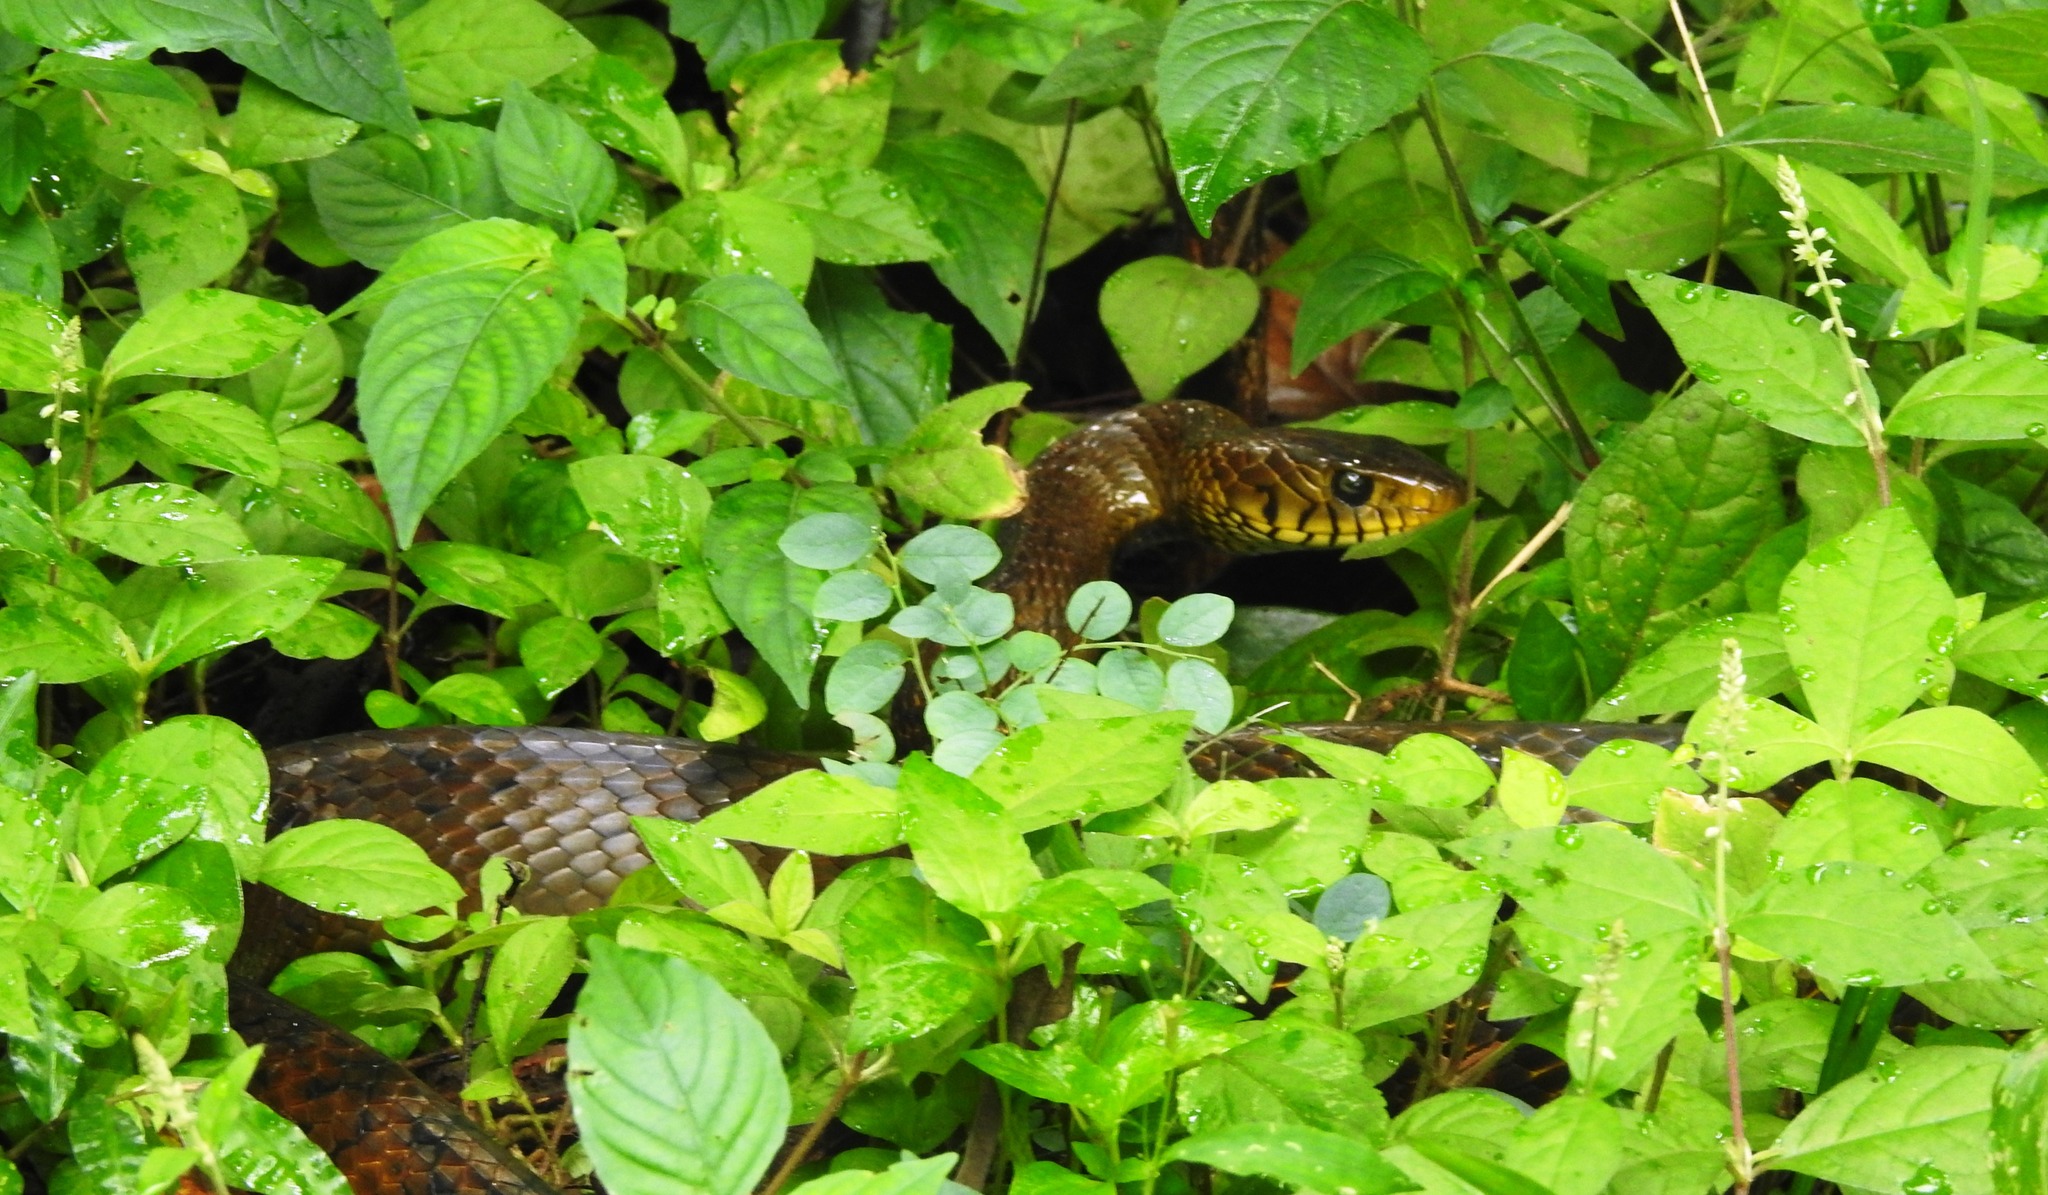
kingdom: Animalia
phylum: Chordata
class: Squamata
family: Colubridae
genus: Ptyas
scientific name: Ptyas mucosa
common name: Oriental ratsnake
